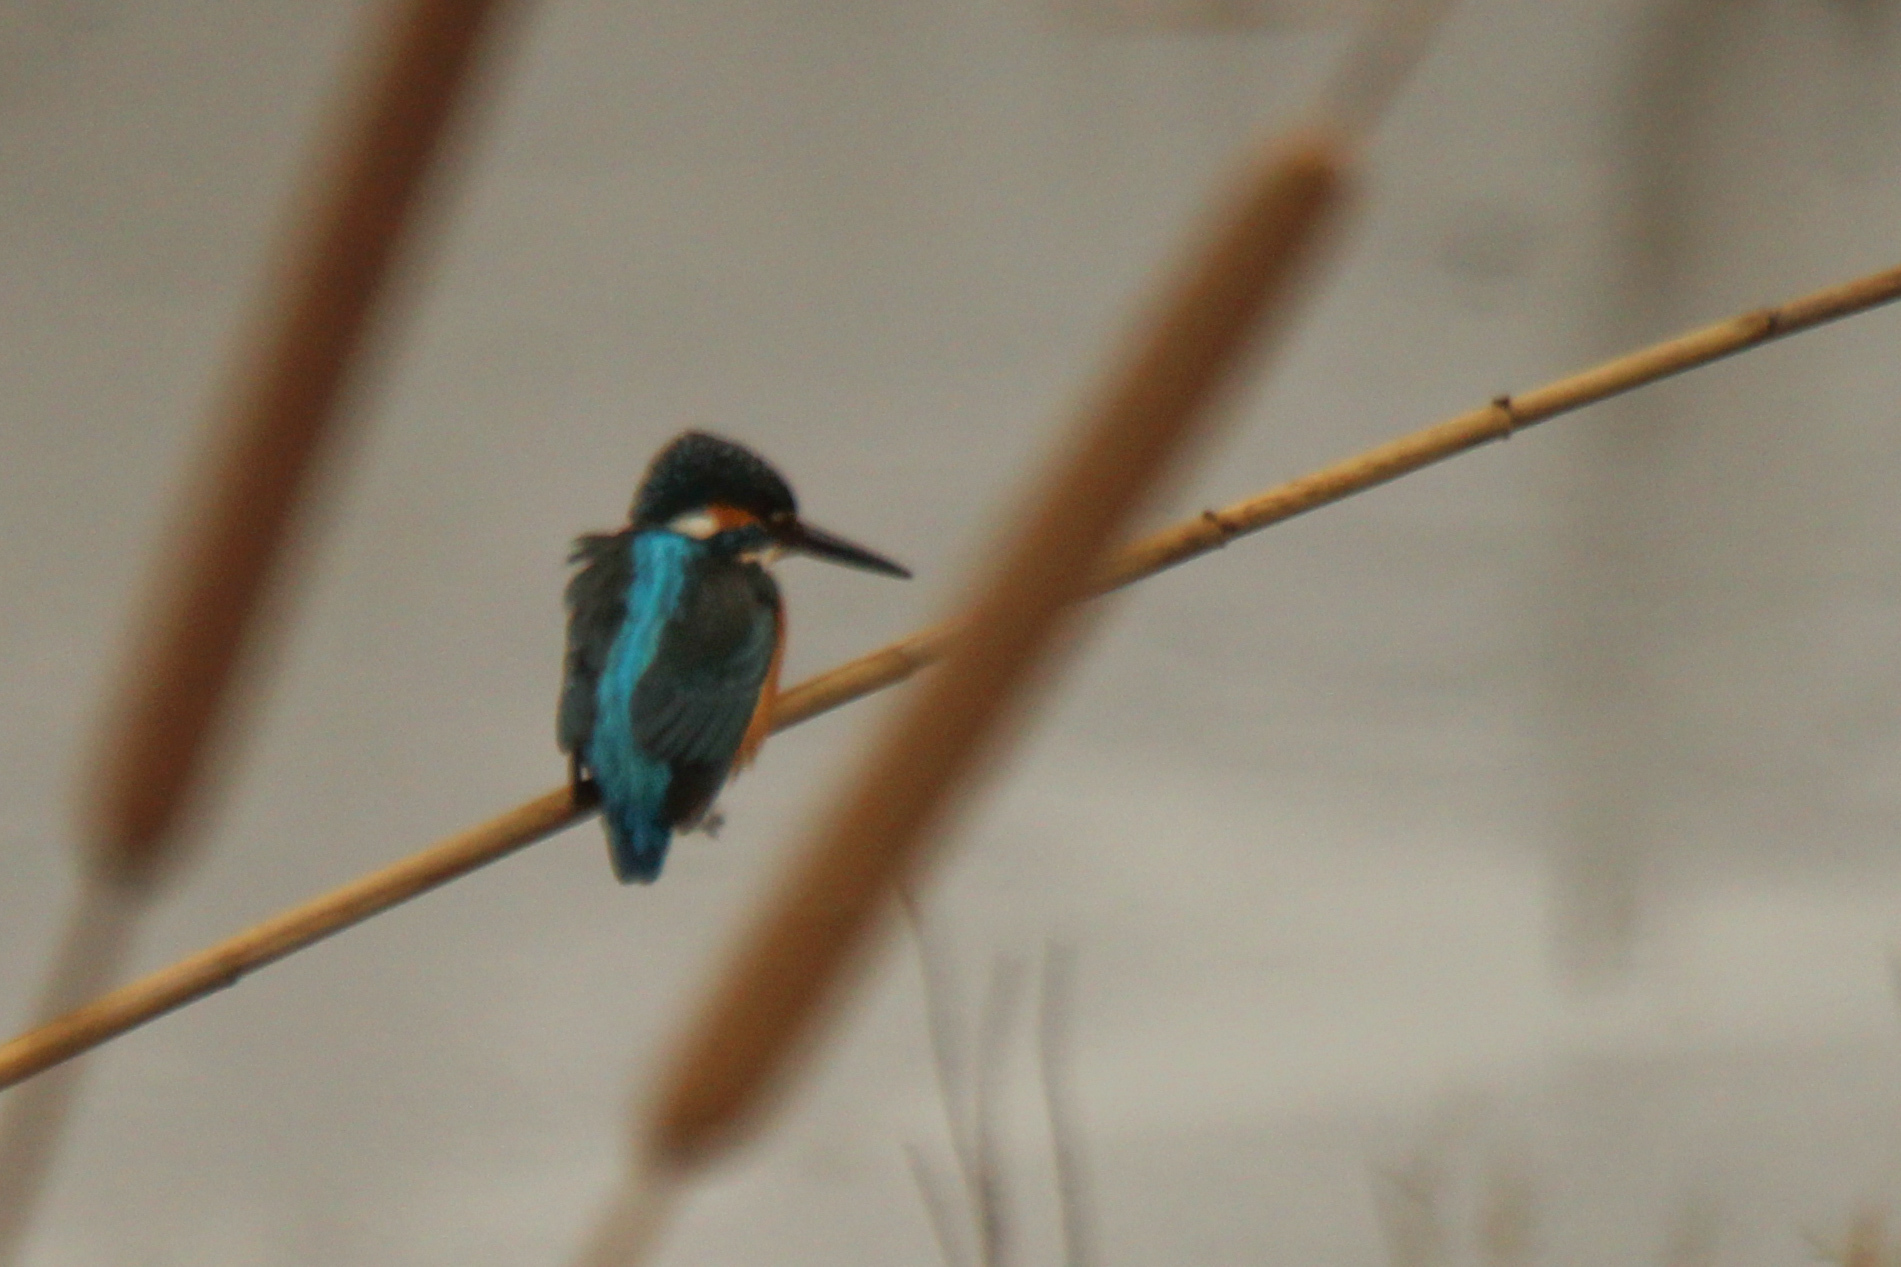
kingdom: Animalia
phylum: Chordata
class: Aves
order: Coraciiformes
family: Alcedinidae
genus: Alcedo
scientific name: Alcedo atthis
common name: Common kingfisher
